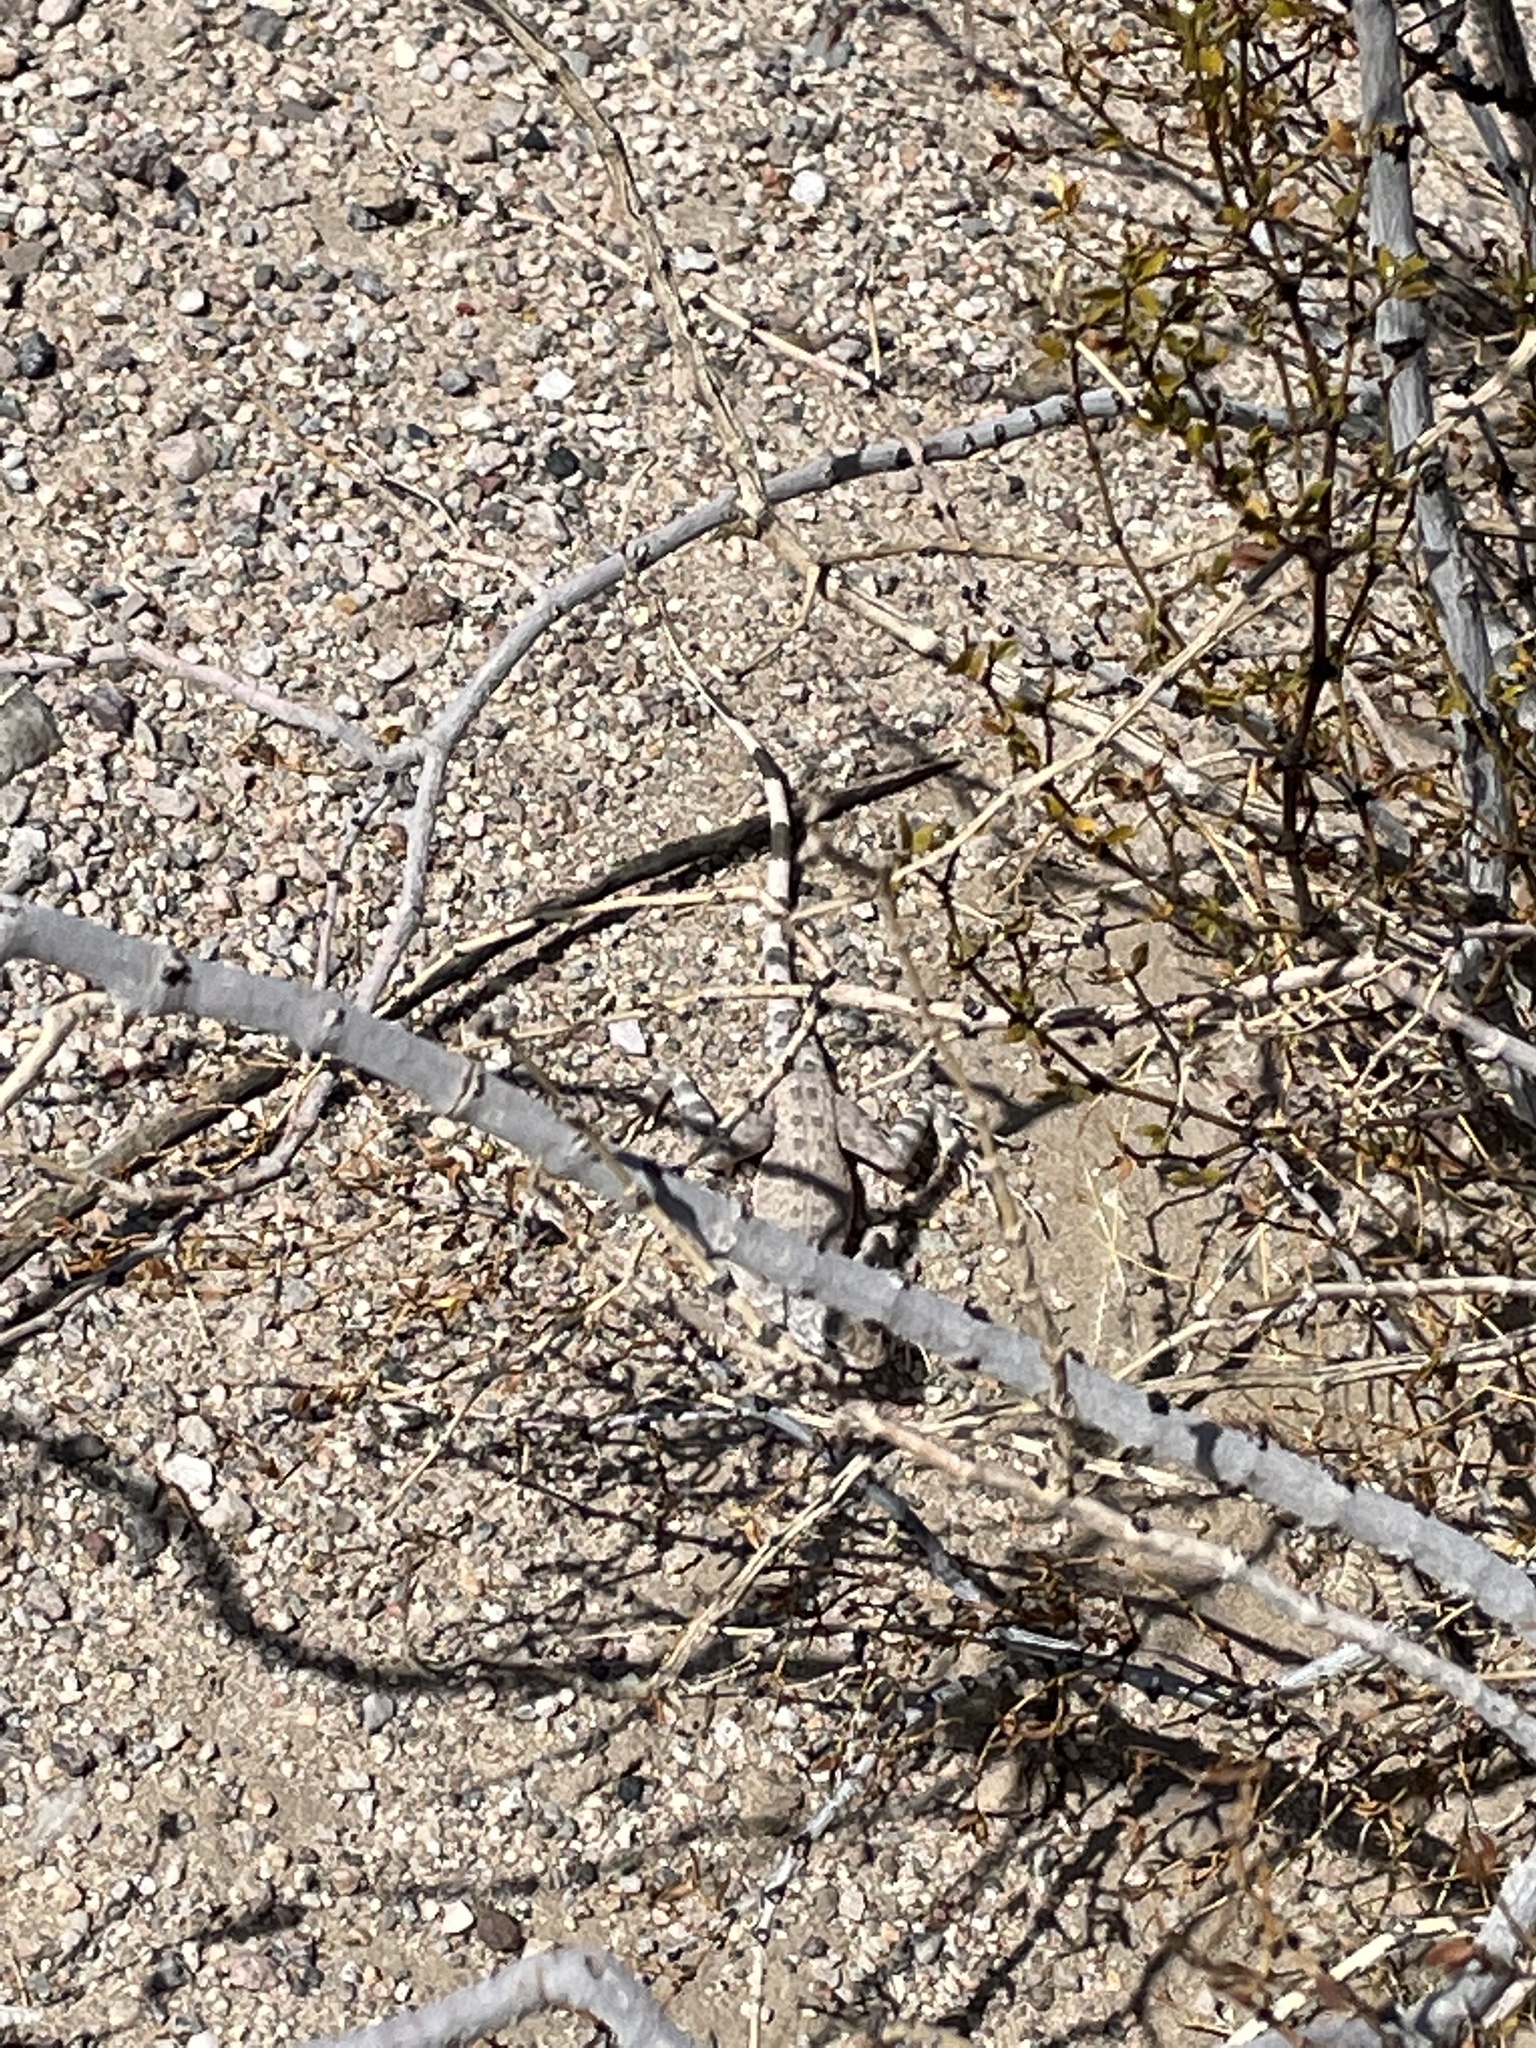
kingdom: Animalia
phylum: Chordata
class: Squamata
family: Phrynosomatidae
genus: Callisaurus
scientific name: Callisaurus draconoides
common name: Zebra-tailed lizard
